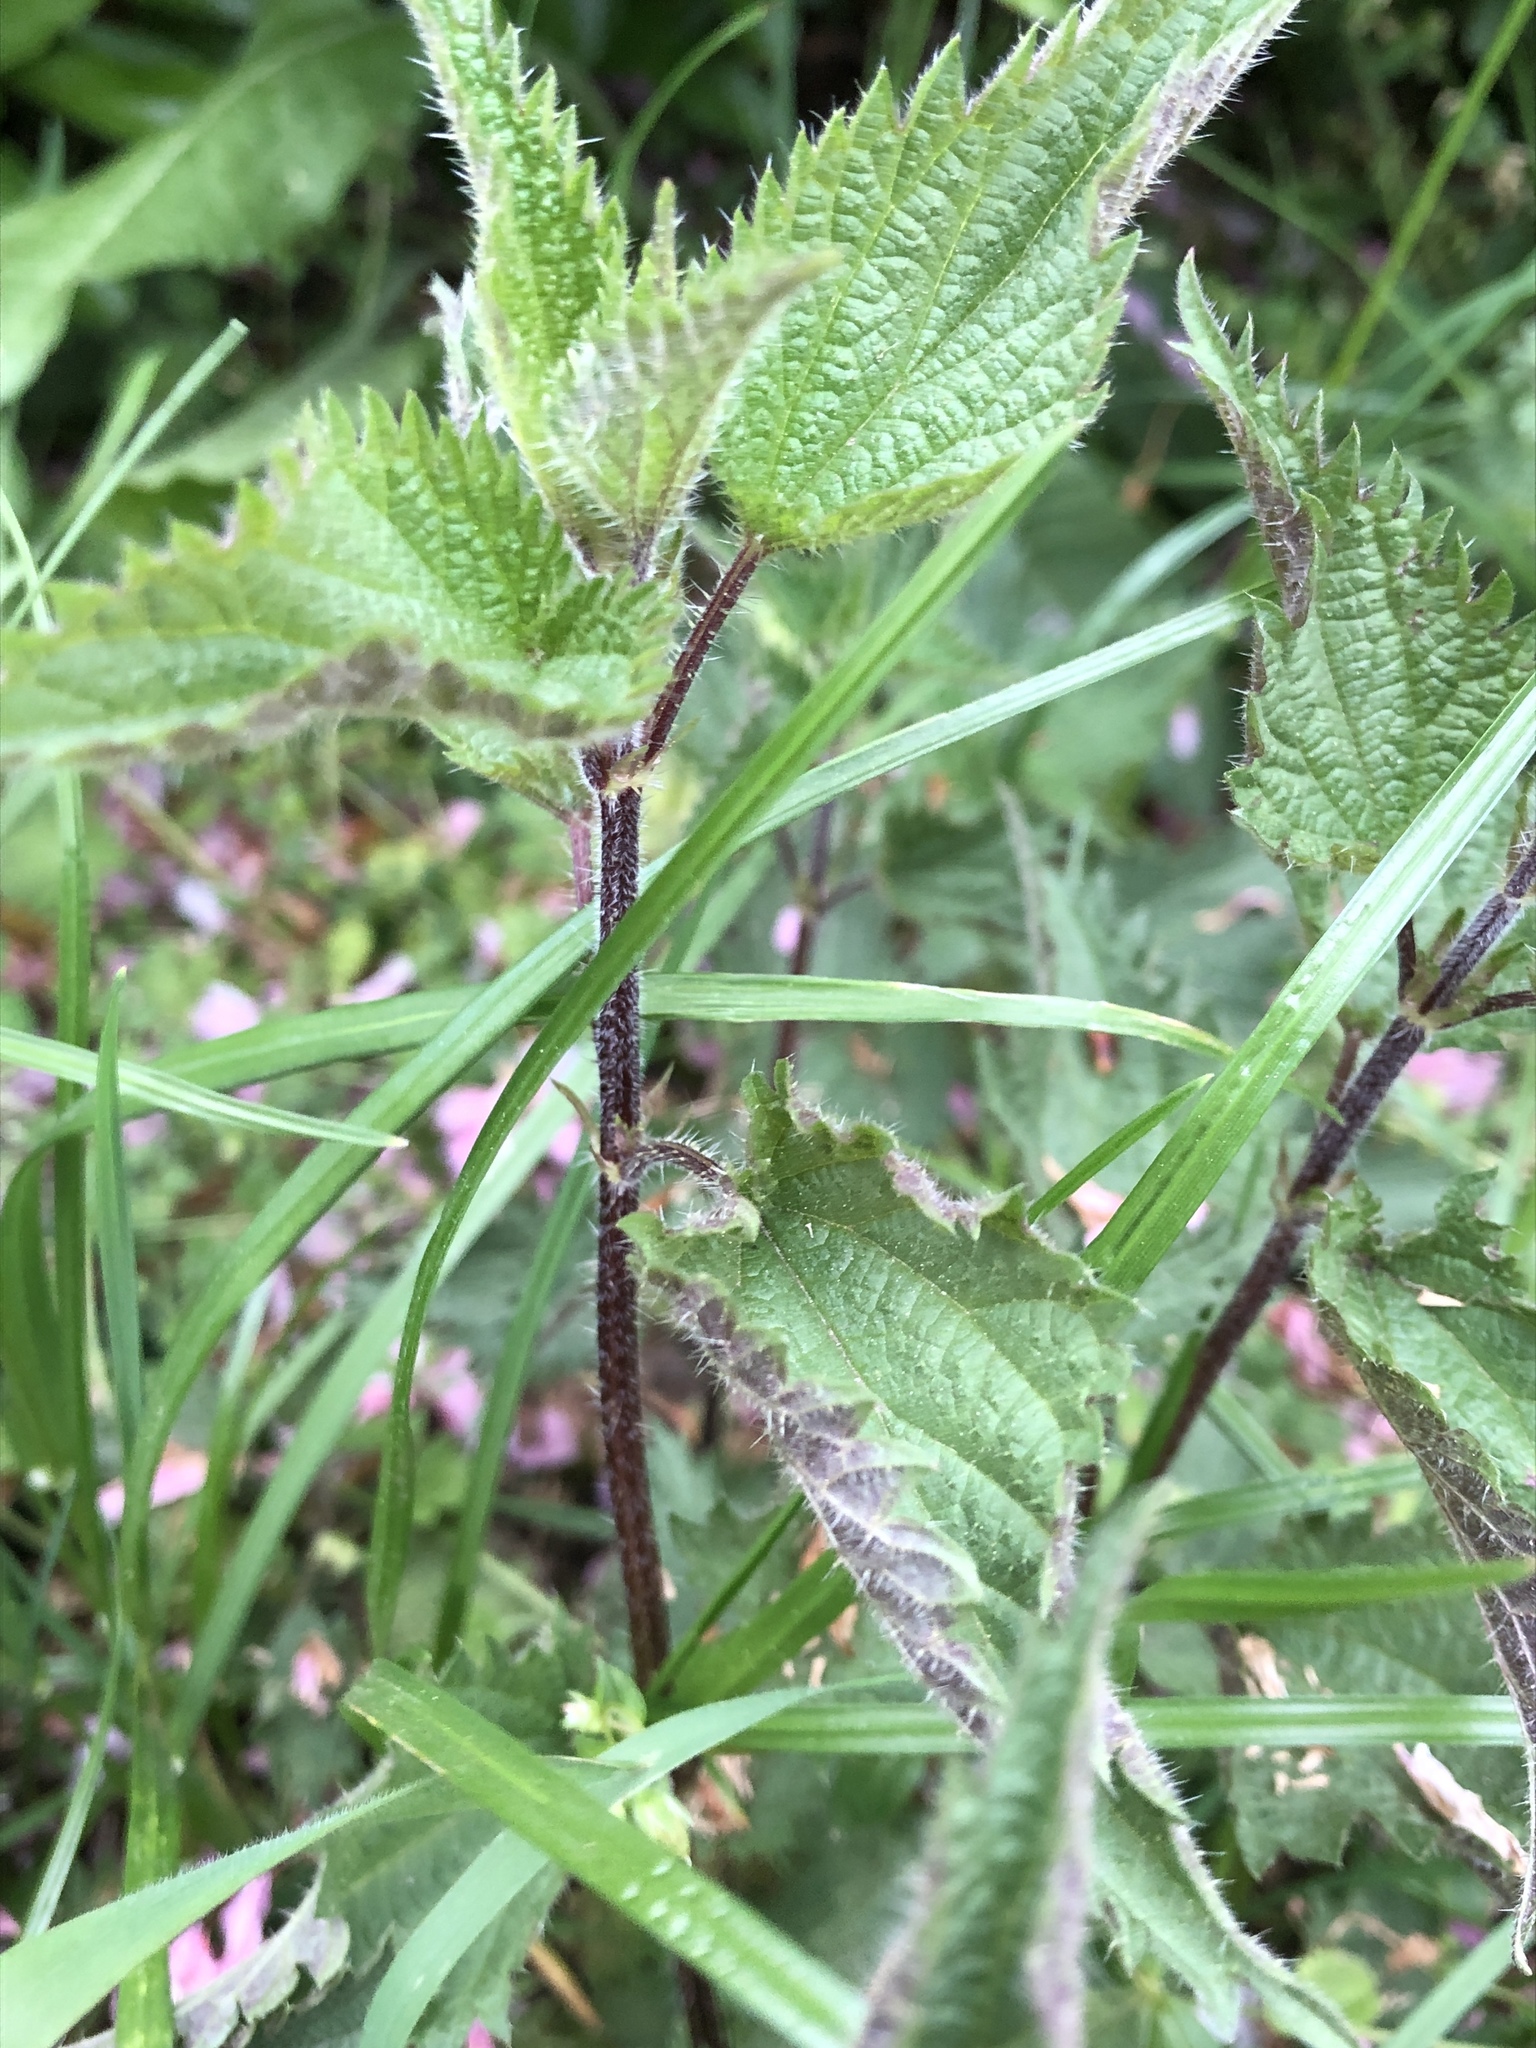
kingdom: Plantae
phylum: Tracheophyta
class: Magnoliopsida
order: Rosales
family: Urticaceae
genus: Urtica
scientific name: Urtica dioica
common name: Common nettle
